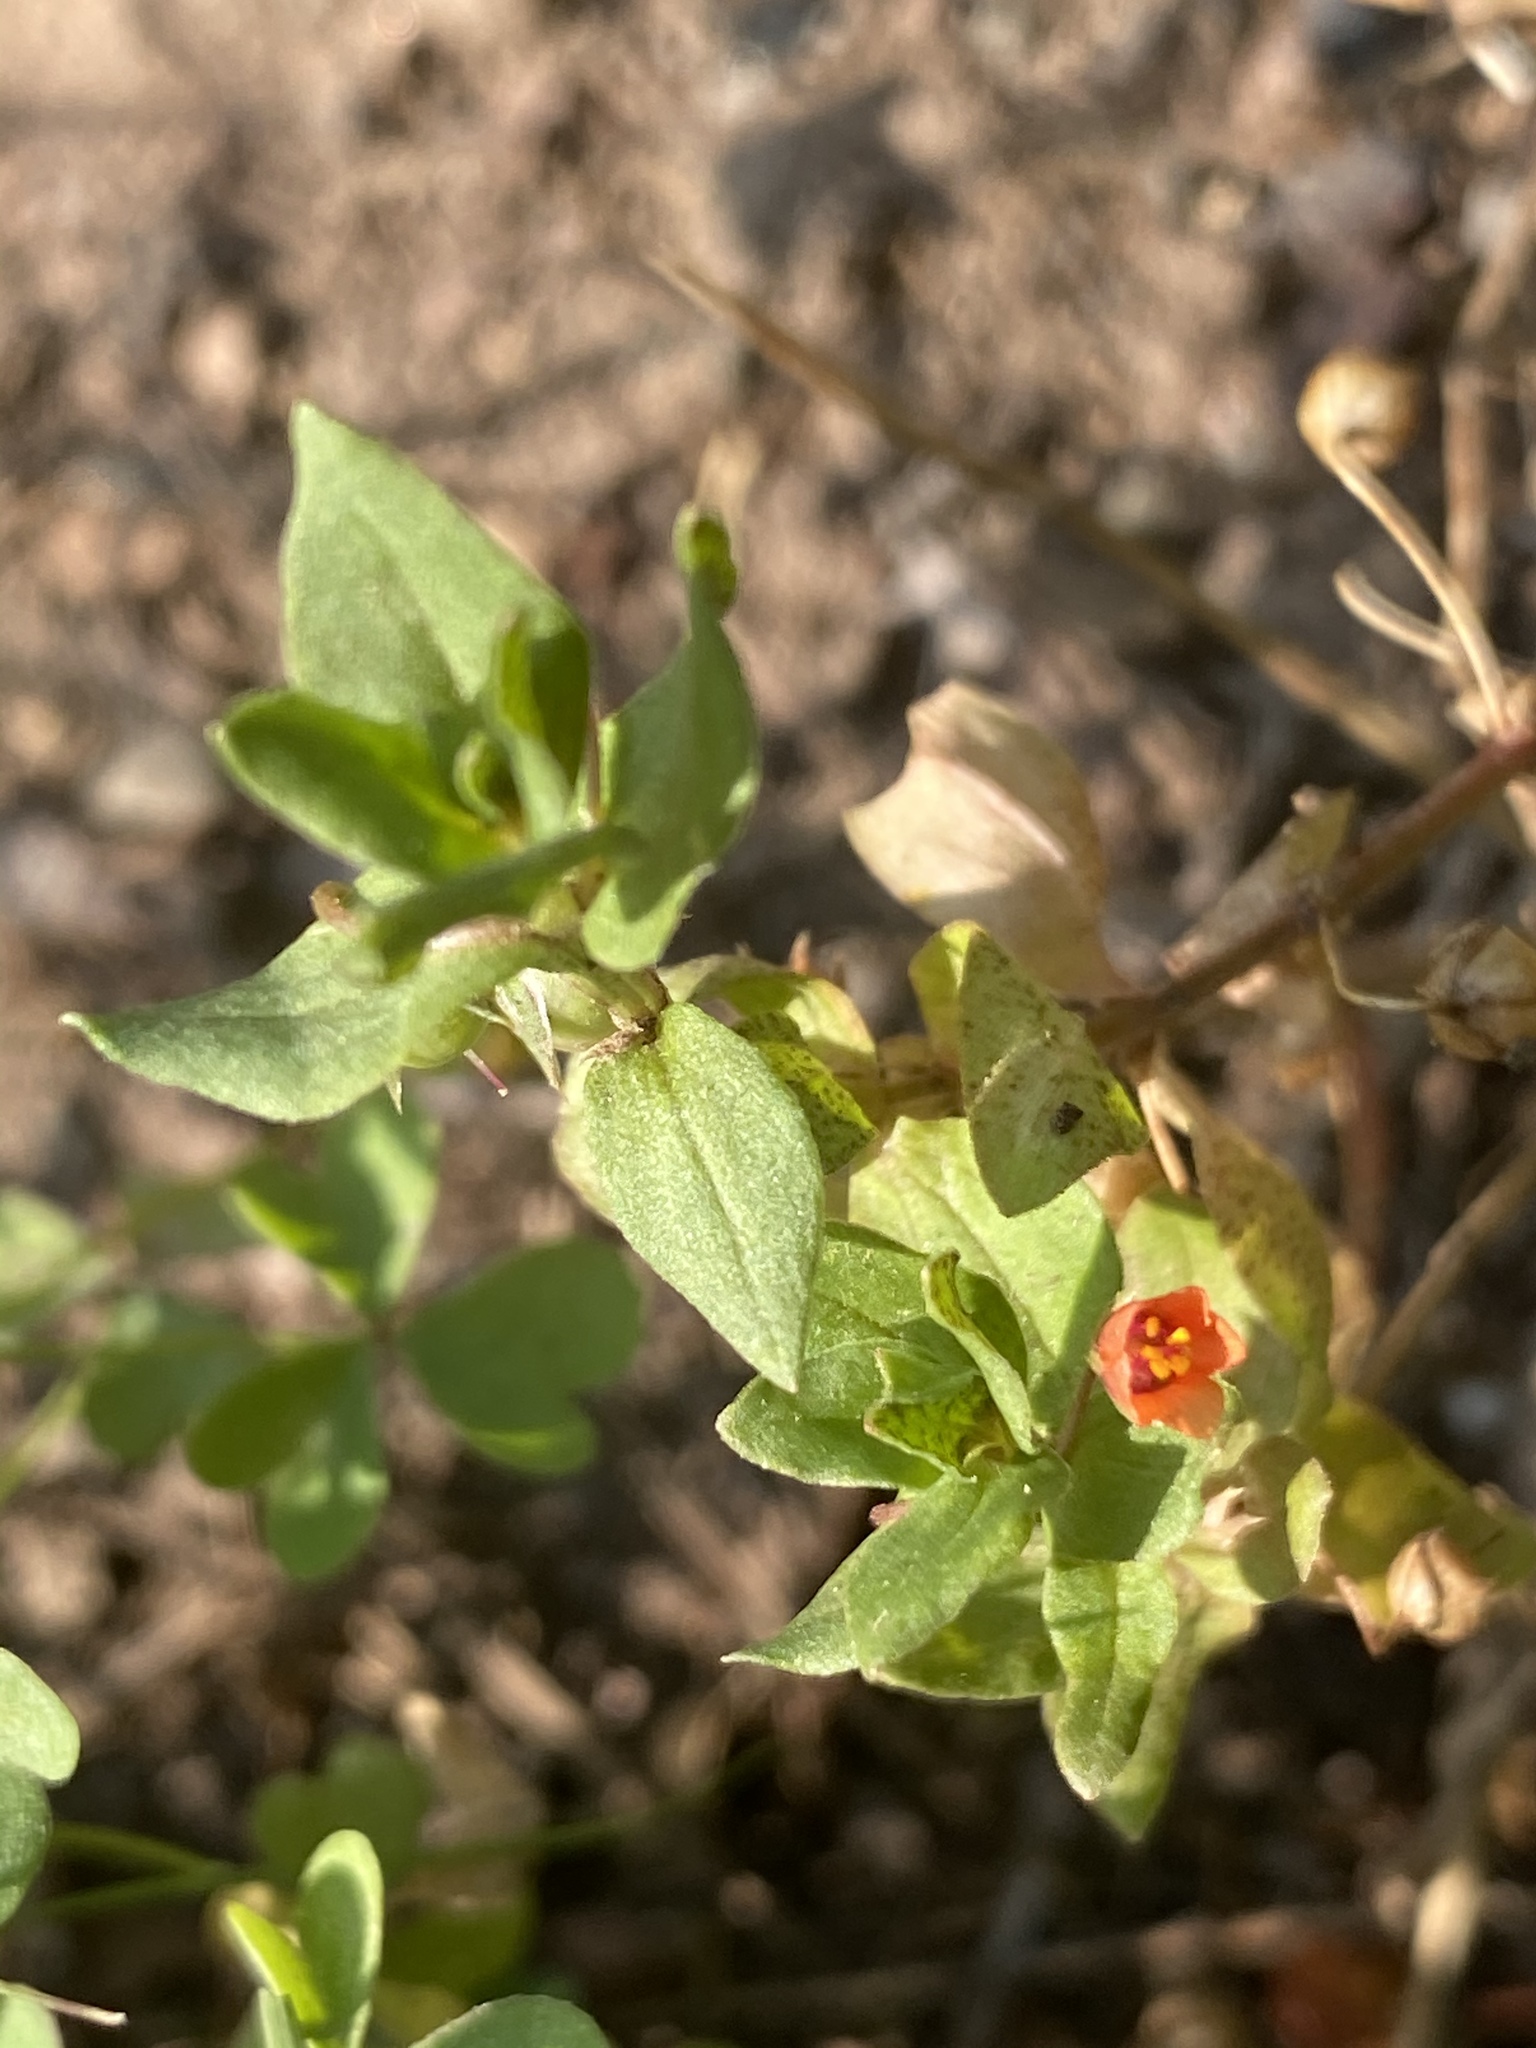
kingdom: Plantae
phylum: Tracheophyta
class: Magnoliopsida
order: Ericales
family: Primulaceae
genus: Lysimachia
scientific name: Lysimachia arvensis
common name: Scarlet pimpernel
